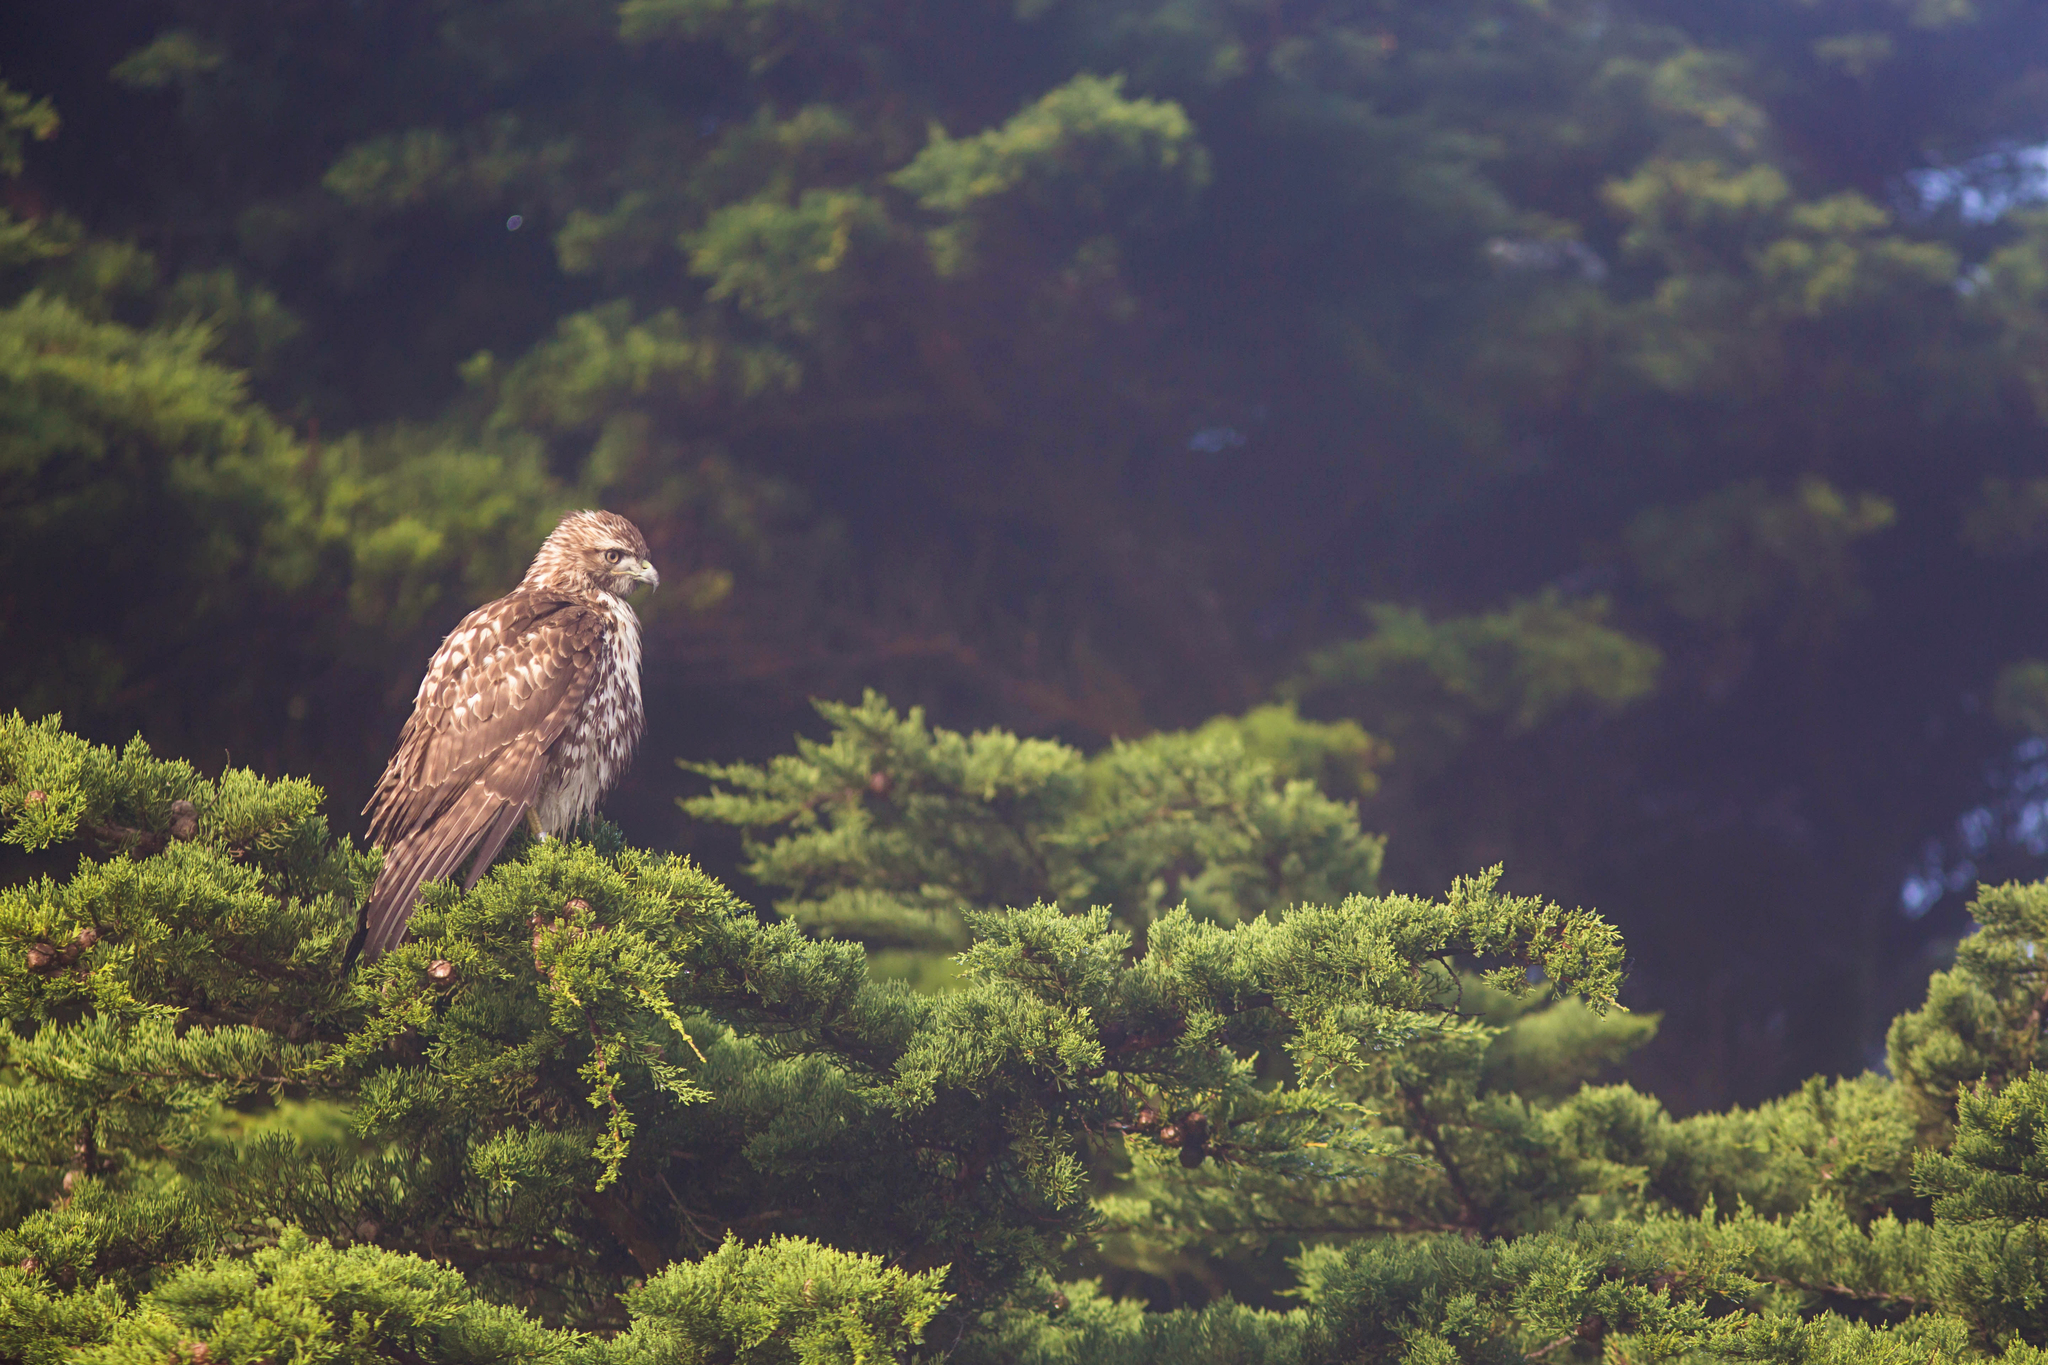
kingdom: Animalia
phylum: Chordata
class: Aves
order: Accipitriformes
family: Accipitridae
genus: Buteo
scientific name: Buteo jamaicensis
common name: Red-tailed hawk
